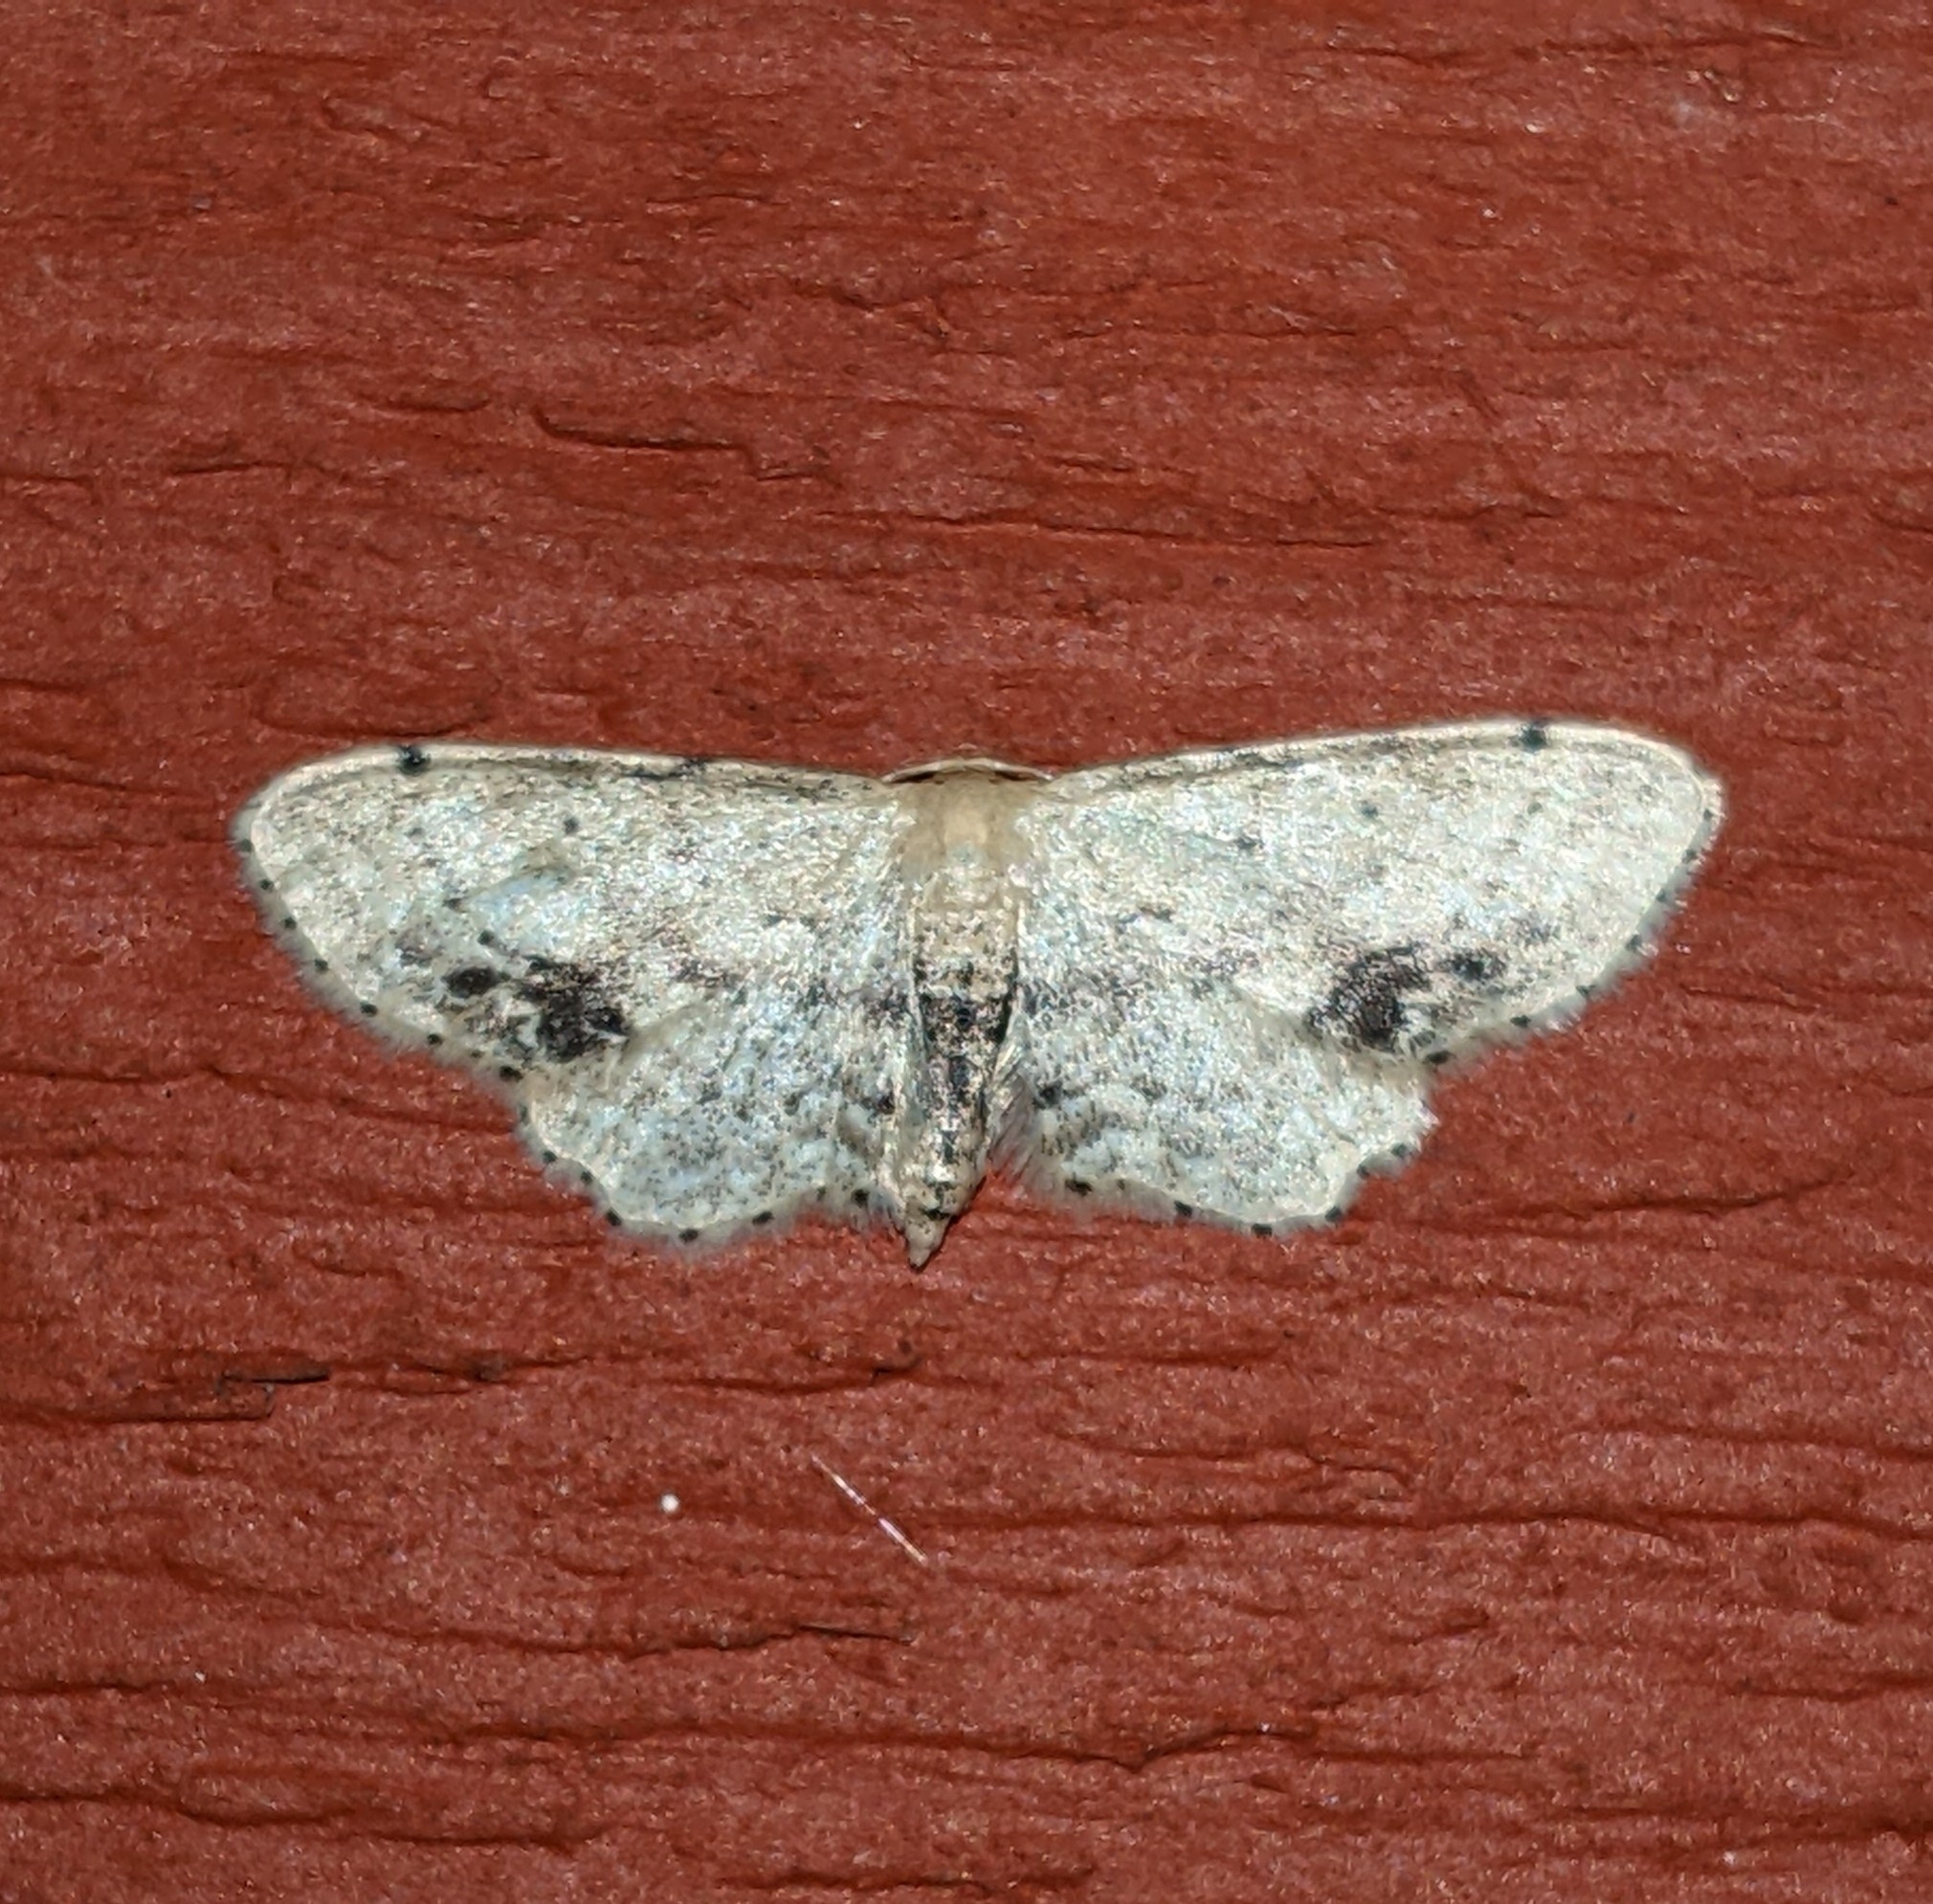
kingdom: Animalia
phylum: Arthropoda
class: Insecta
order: Lepidoptera
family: Geometridae
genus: Idaea
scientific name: Idaea dimidiata
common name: Single-dotted wave
